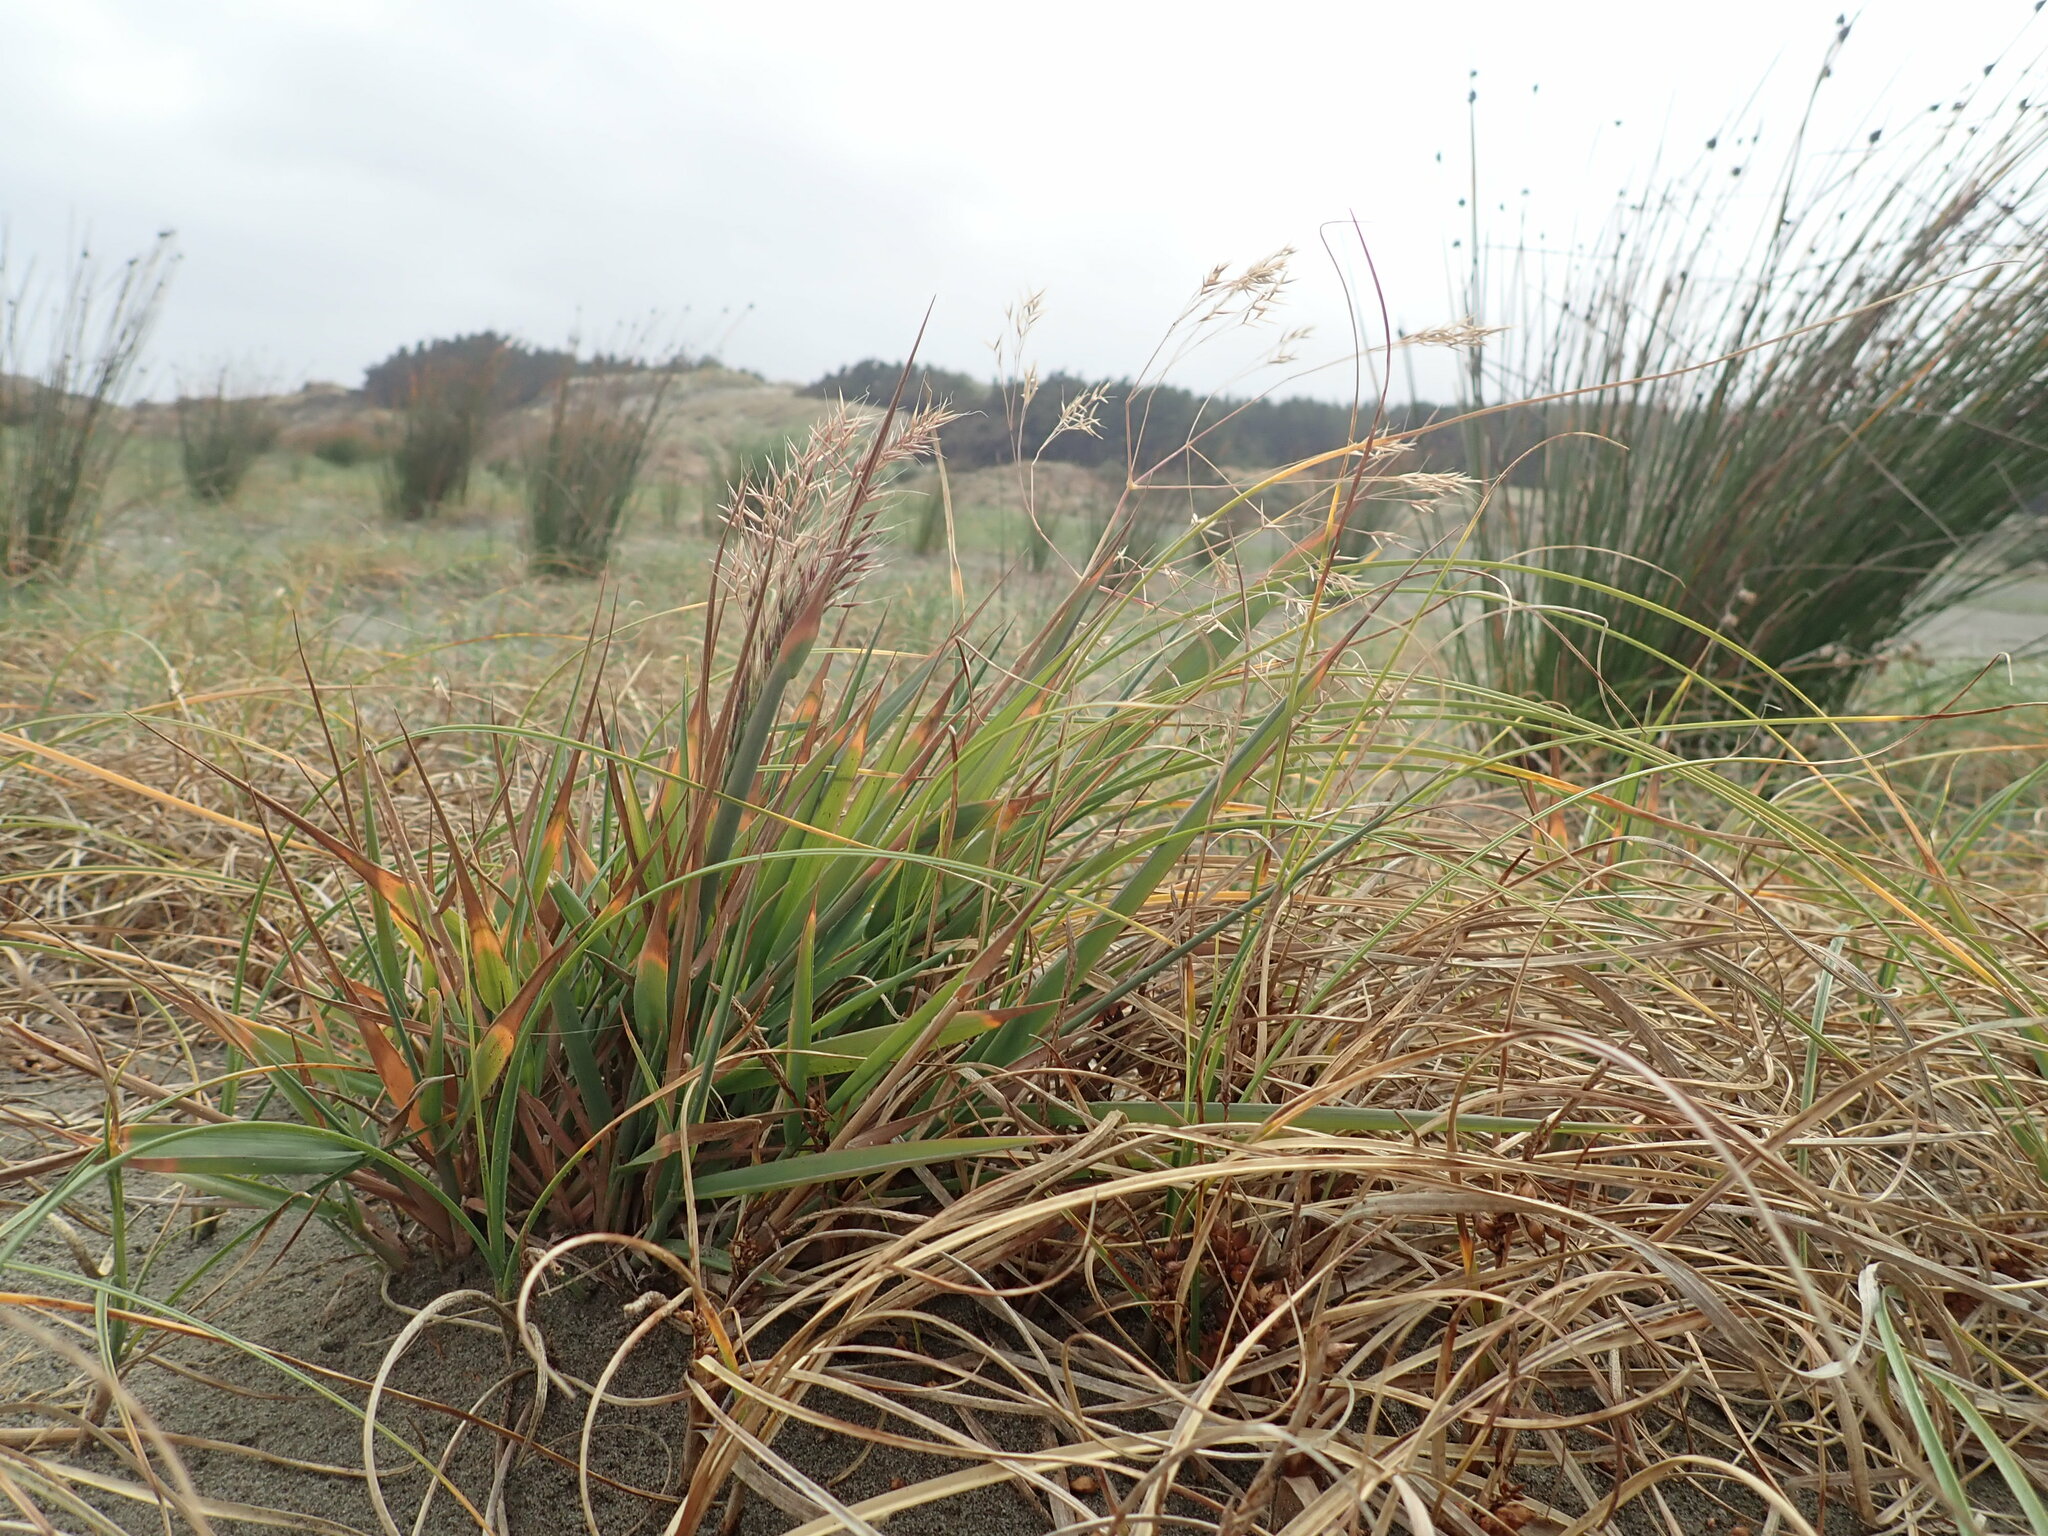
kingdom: Plantae
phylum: Tracheophyta
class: Liliopsida
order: Poales
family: Poaceae
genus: Lachnagrostis
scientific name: Lachnagrostis billardierei
